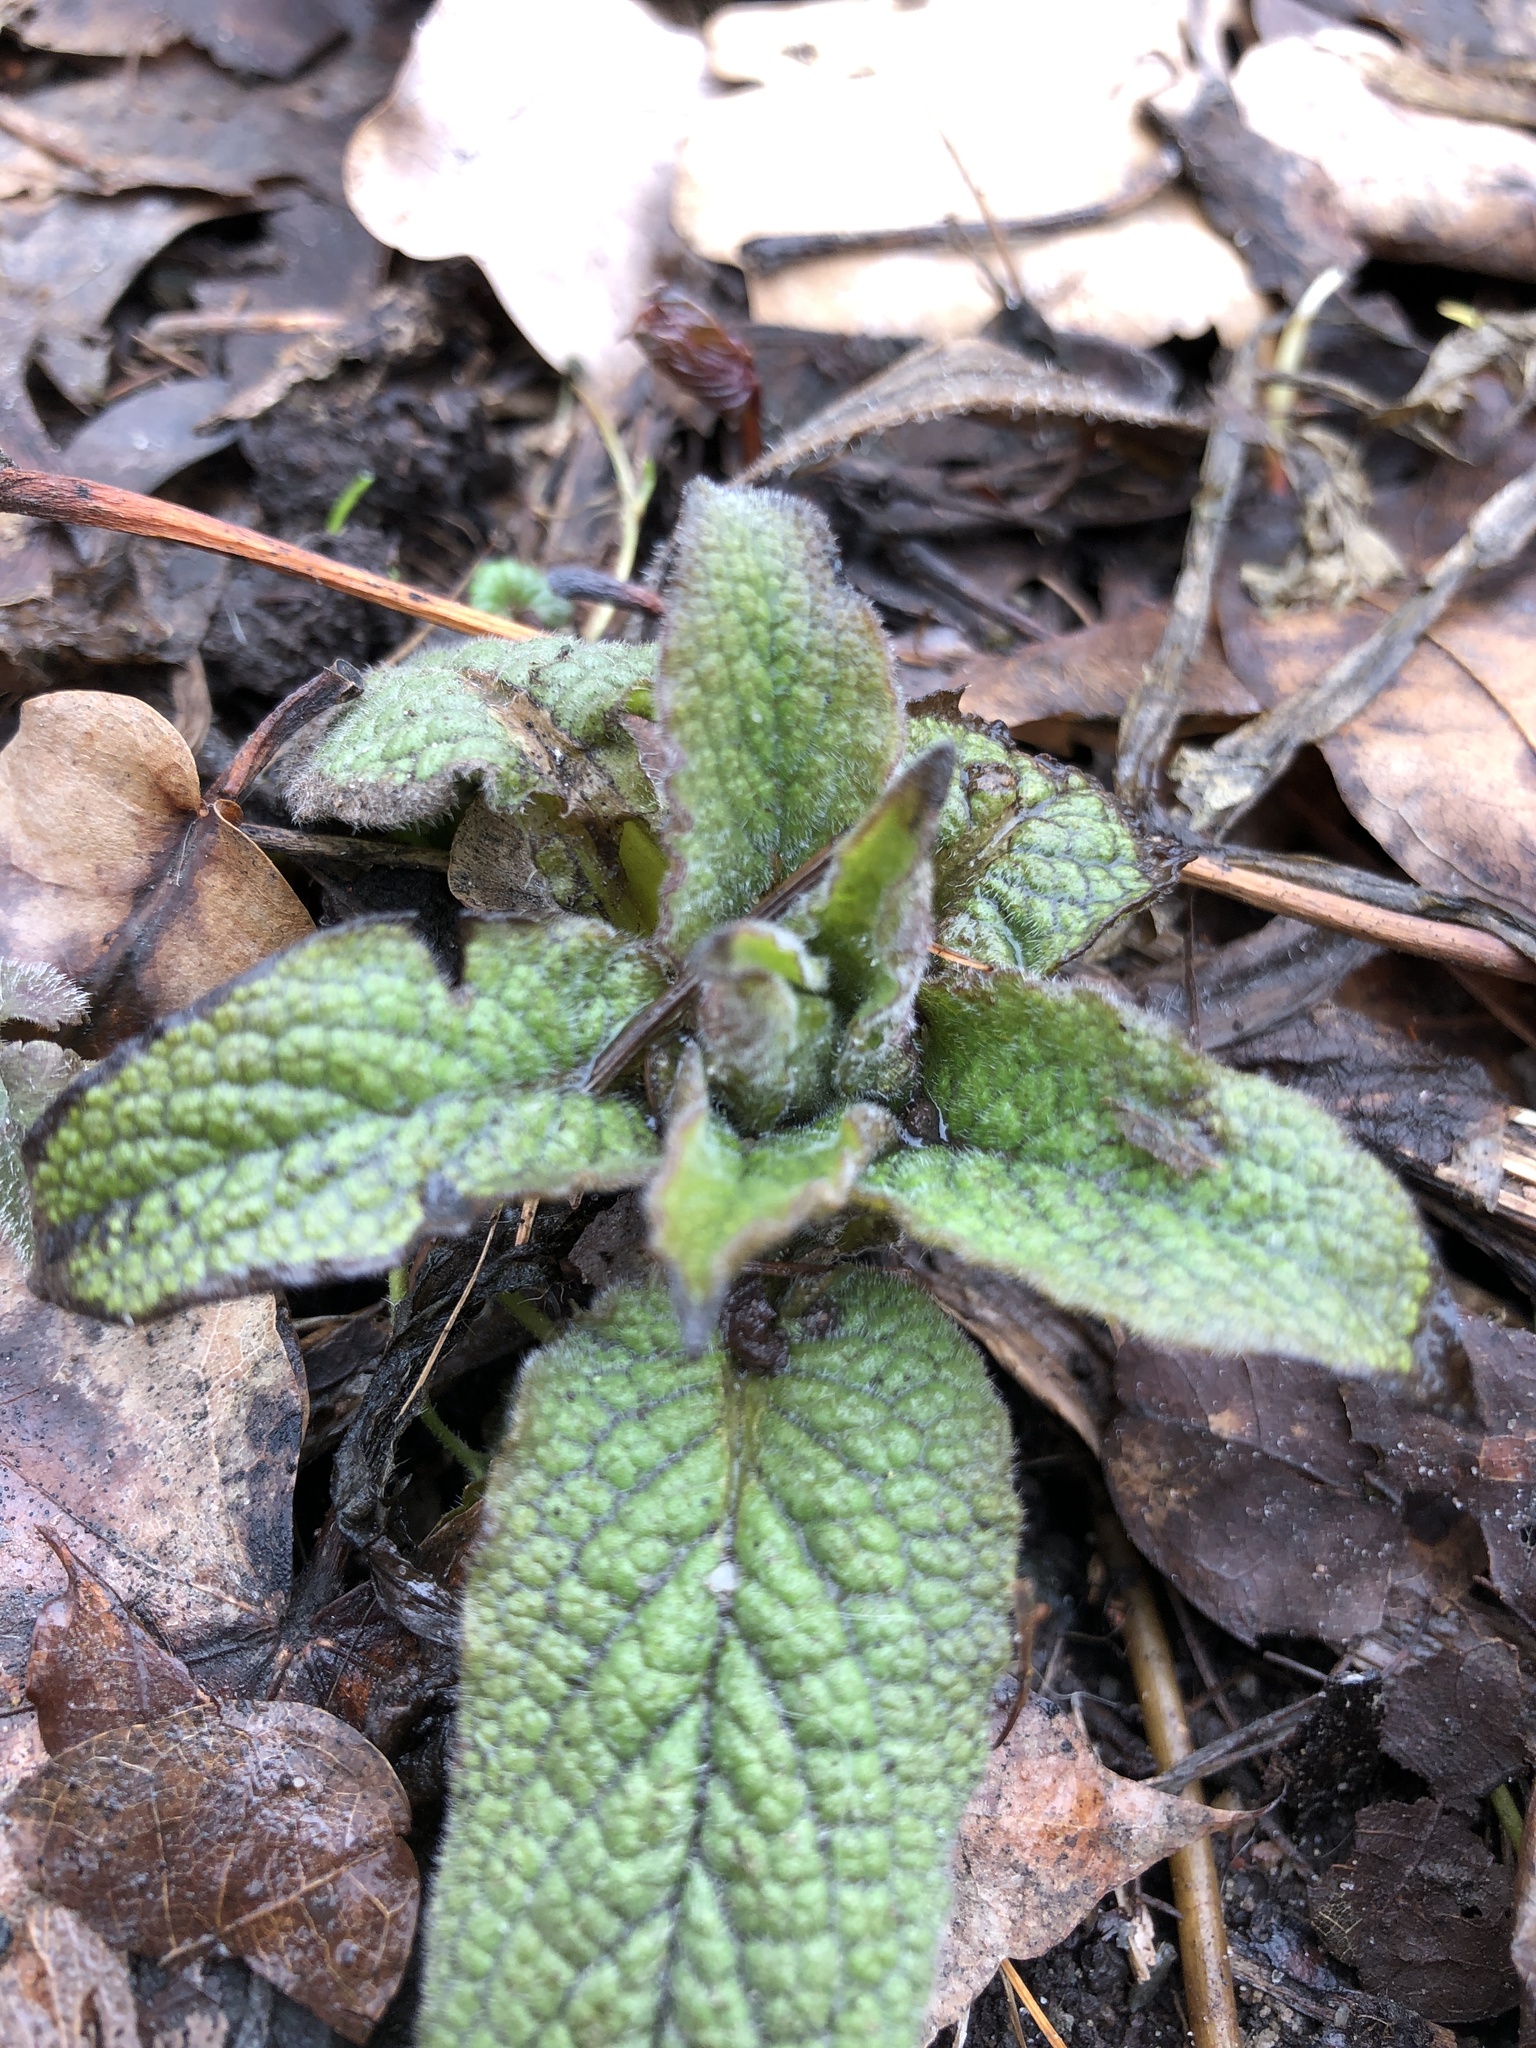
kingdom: Plantae
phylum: Tracheophyta
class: Magnoliopsida
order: Boraginales
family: Boraginaceae
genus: Symphytum
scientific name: Symphytum caucasicum
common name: Caucasian comfrey
